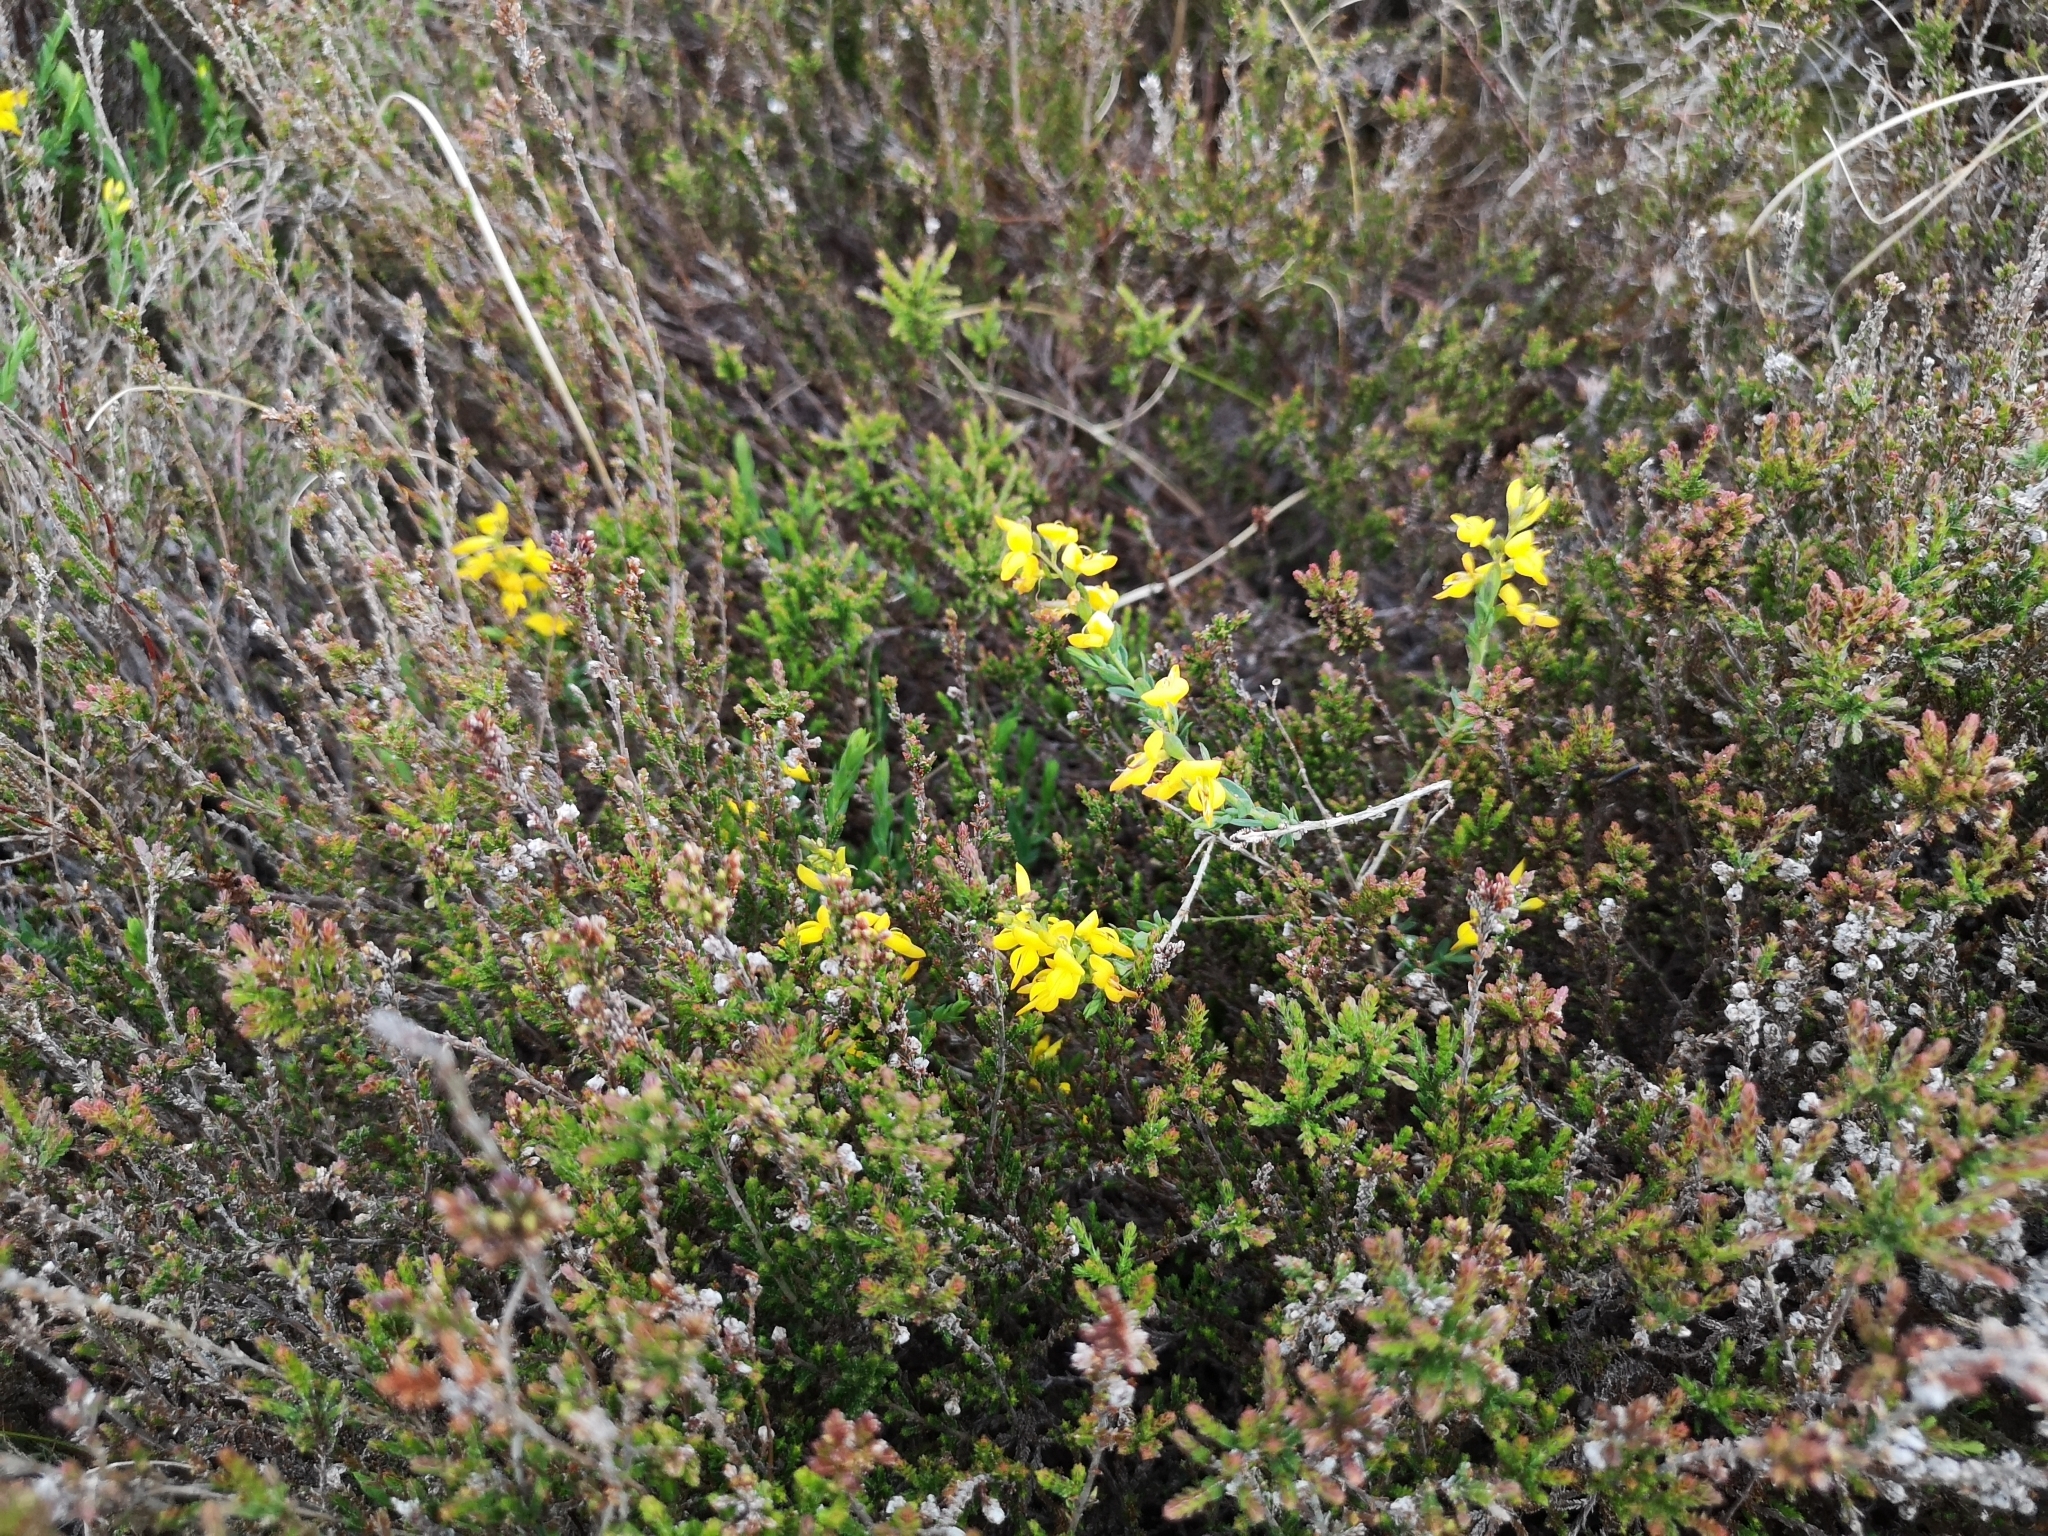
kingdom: Plantae
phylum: Tracheophyta
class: Magnoliopsida
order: Fabales
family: Fabaceae
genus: Genista
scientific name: Genista anglica
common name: Petty whin
